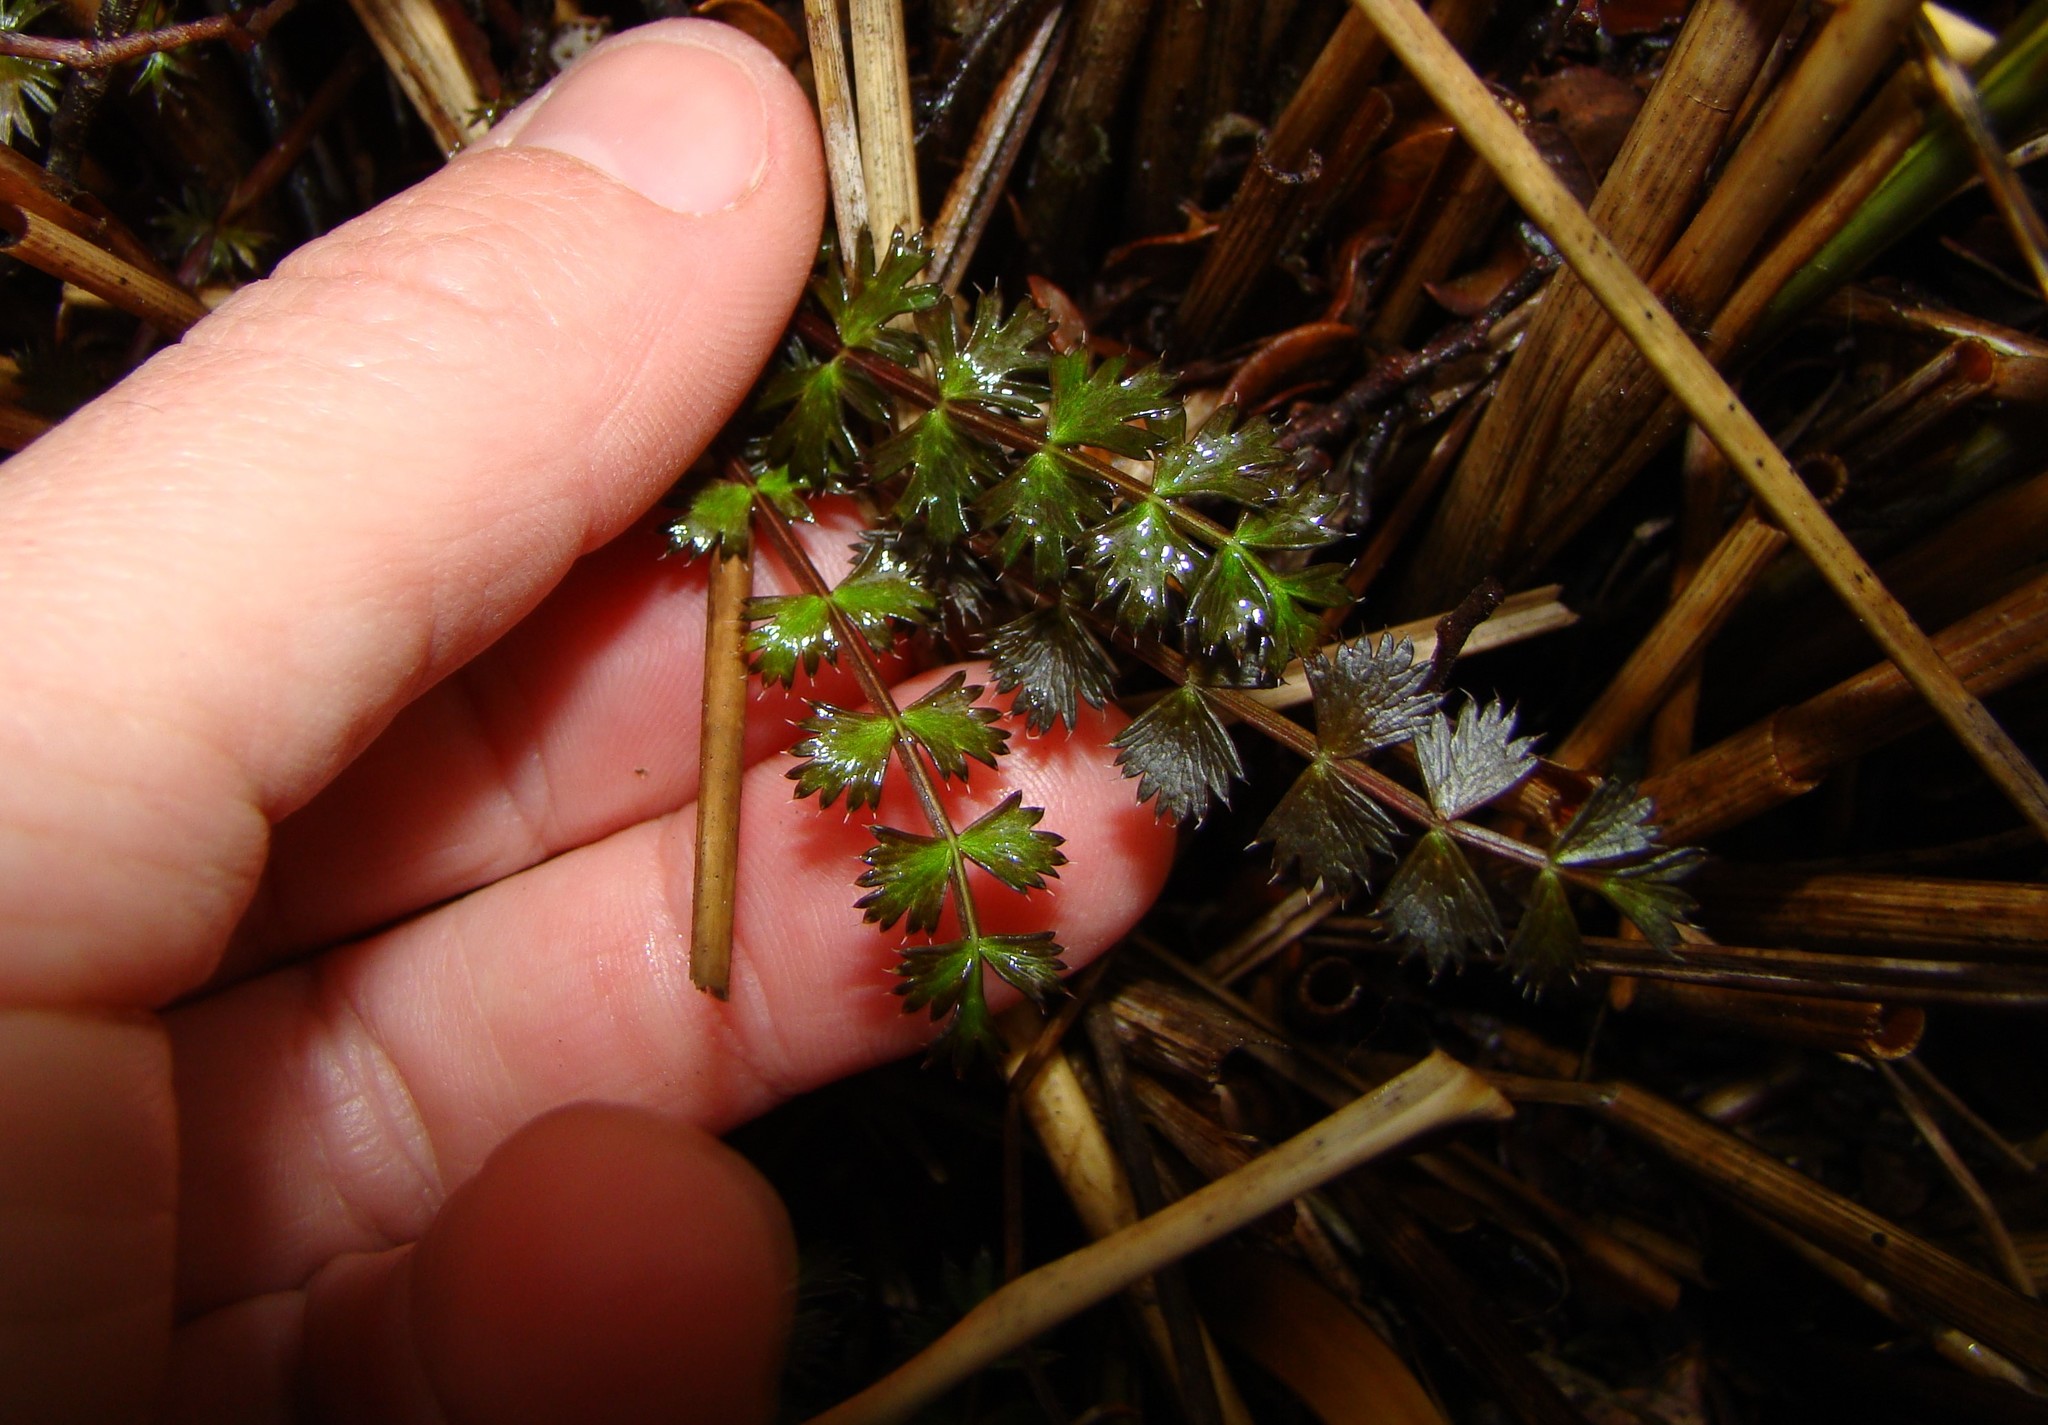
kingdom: Plantae
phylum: Tracheophyta
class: Magnoliopsida
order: Apiales
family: Apiaceae
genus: Anisotome
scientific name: Anisotome aromatica
